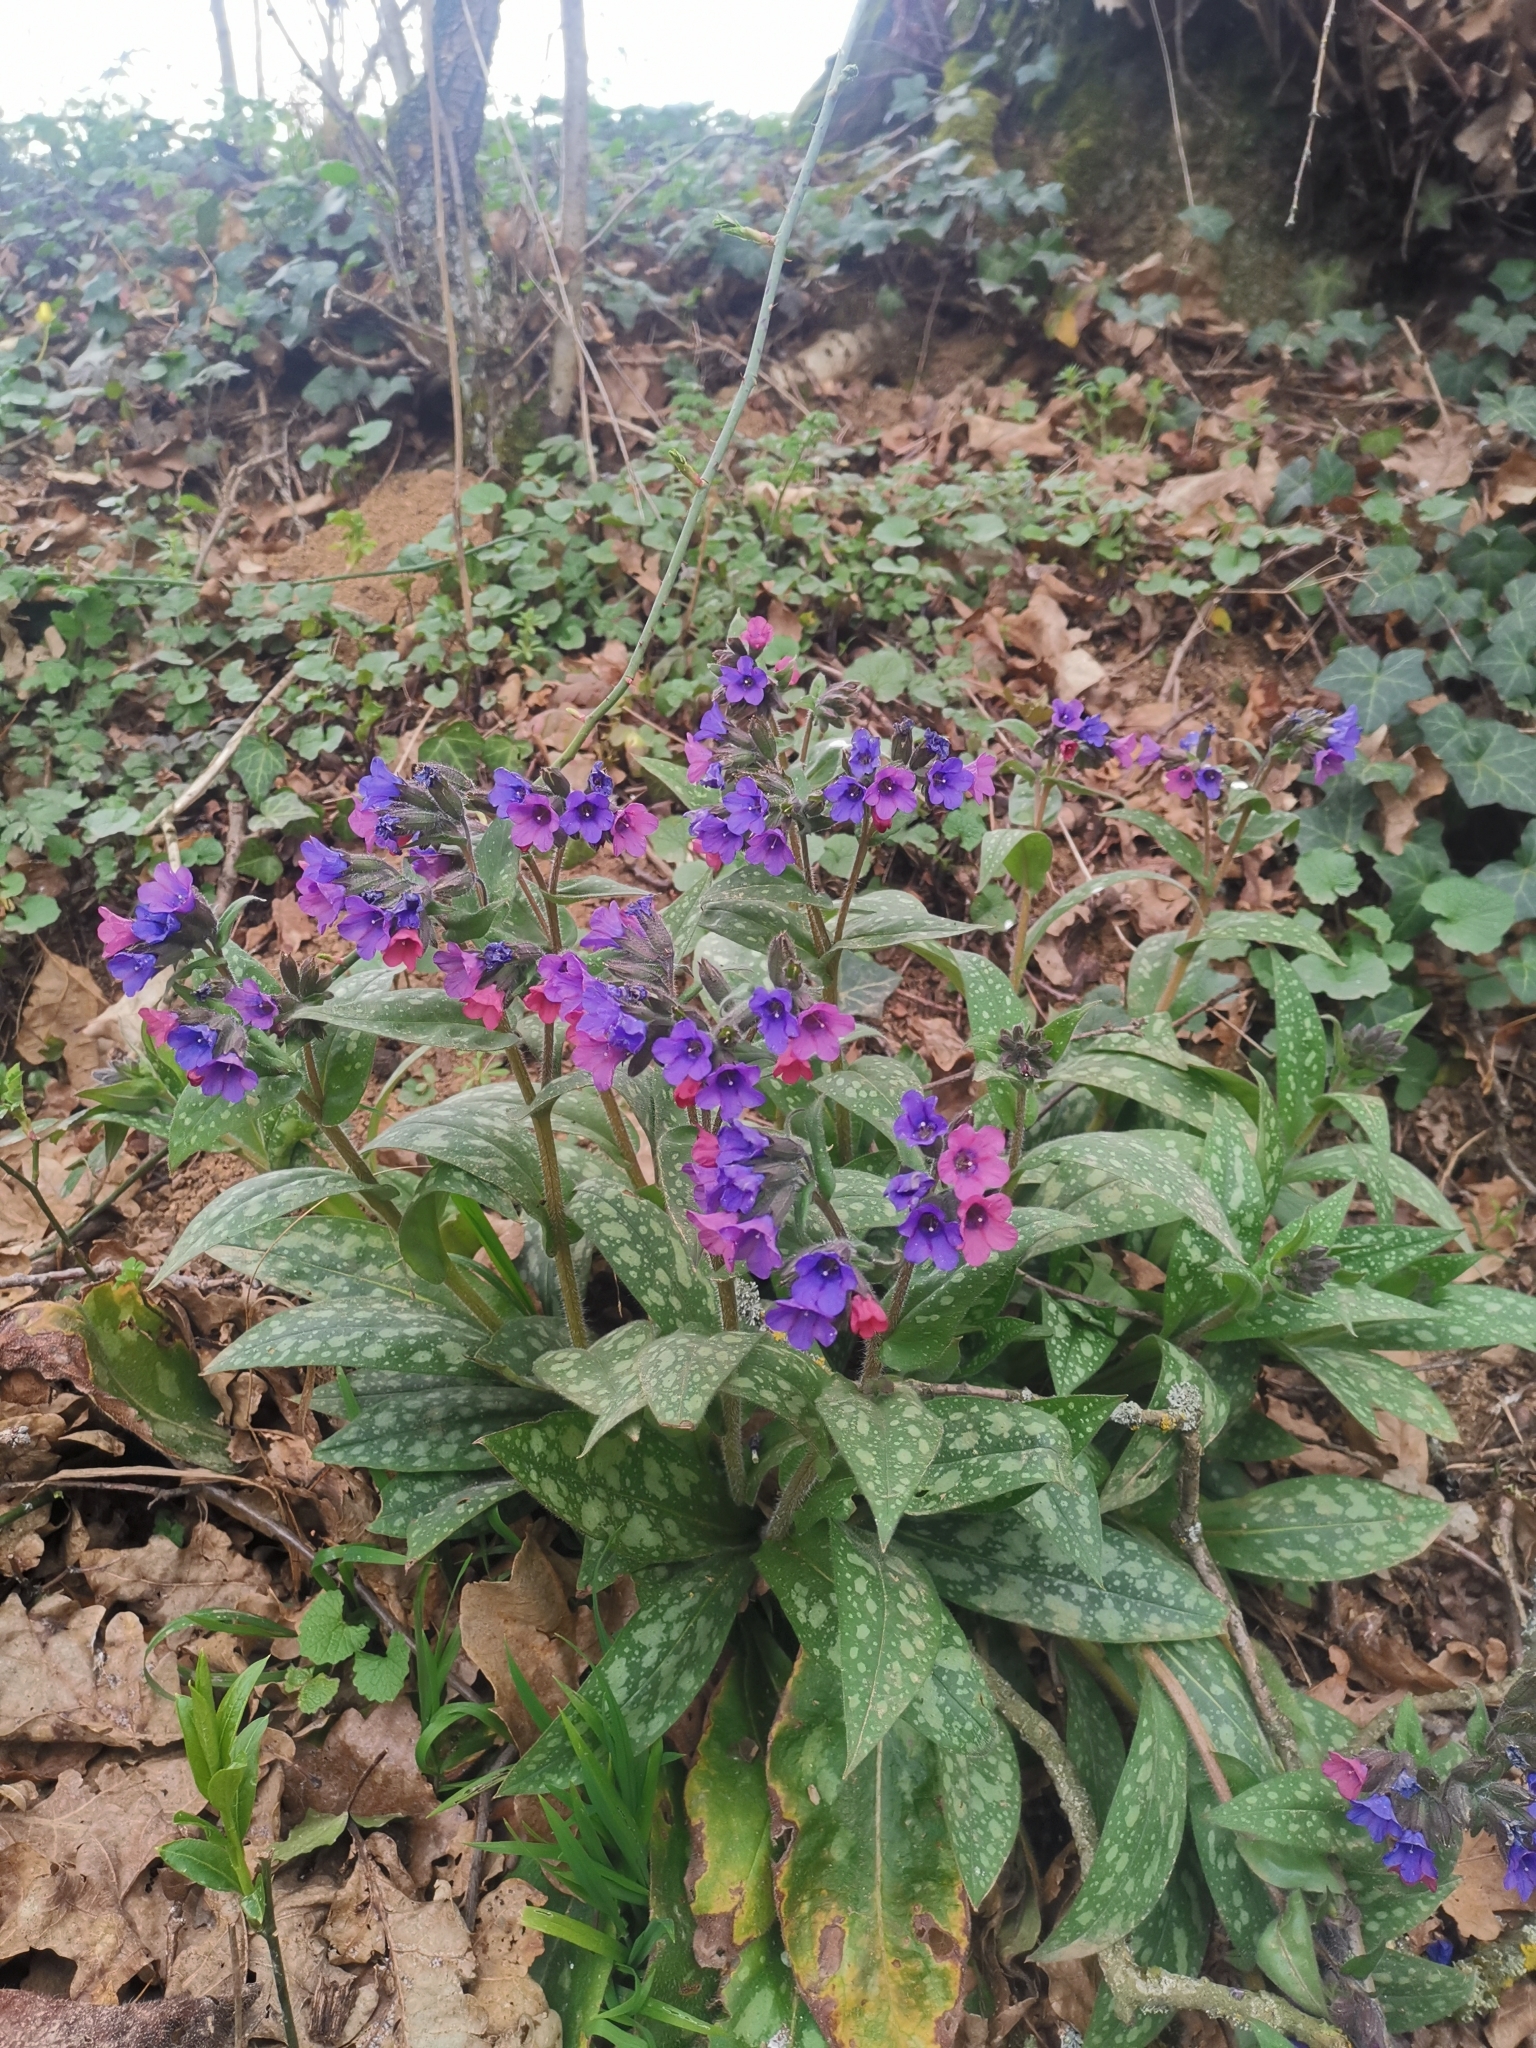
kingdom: Plantae
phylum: Tracheophyta
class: Magnoliopsida
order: Boraginales
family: Boraginaceae
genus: Pulmonaria
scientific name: Pulmonaria longifolia
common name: Narrow-leaved lungwort
